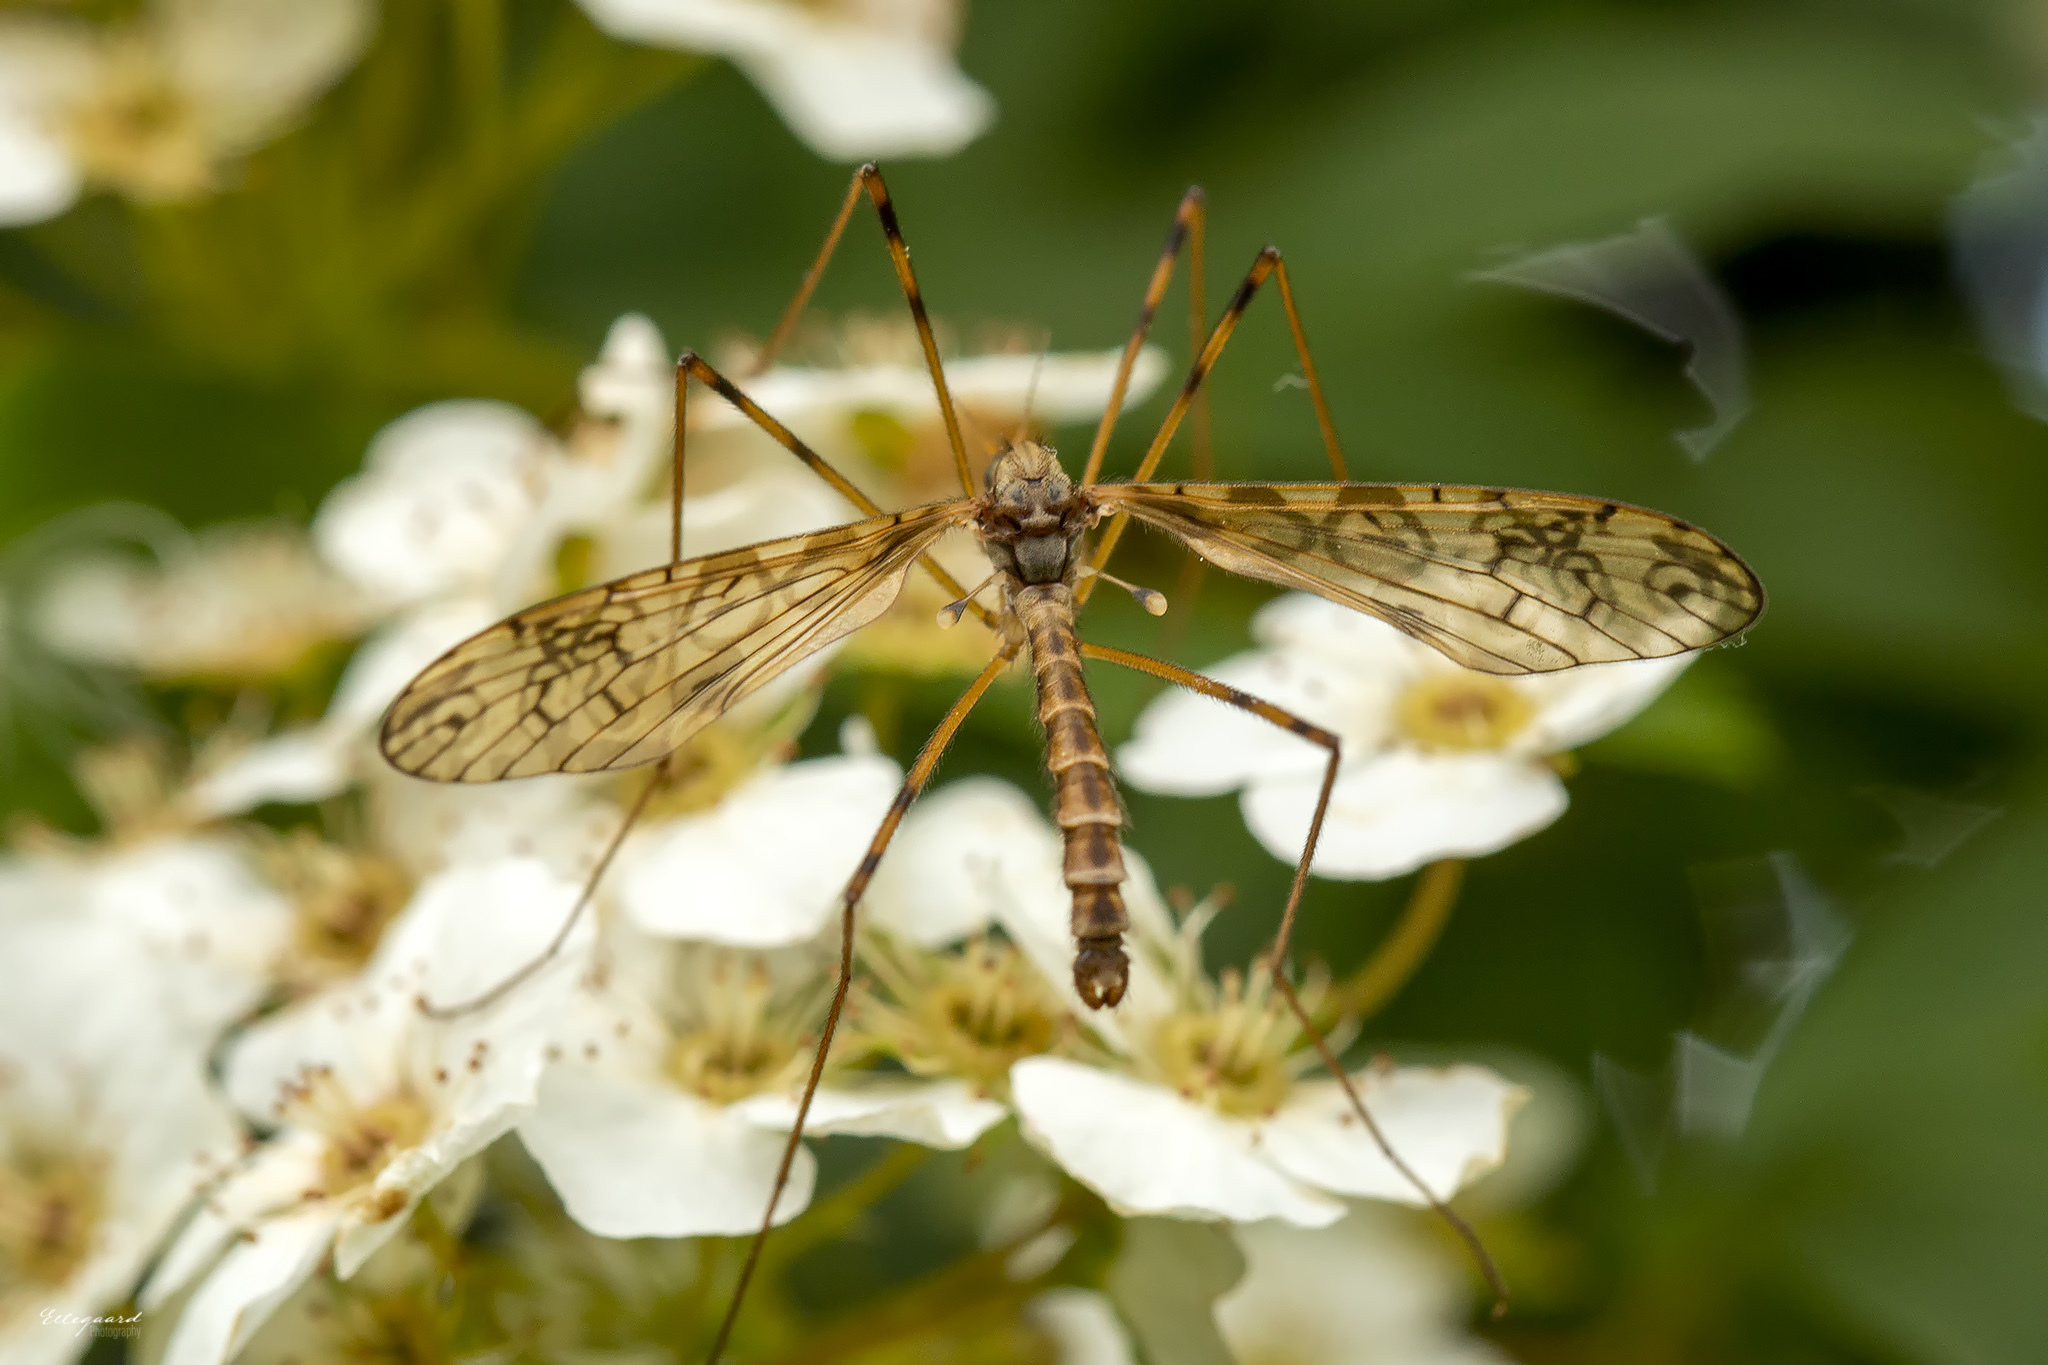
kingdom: Animalia
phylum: Arthropoda
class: Insecta
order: Diptera
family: Limoniidae
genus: Epiphragma
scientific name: Epiphragma ocellare
